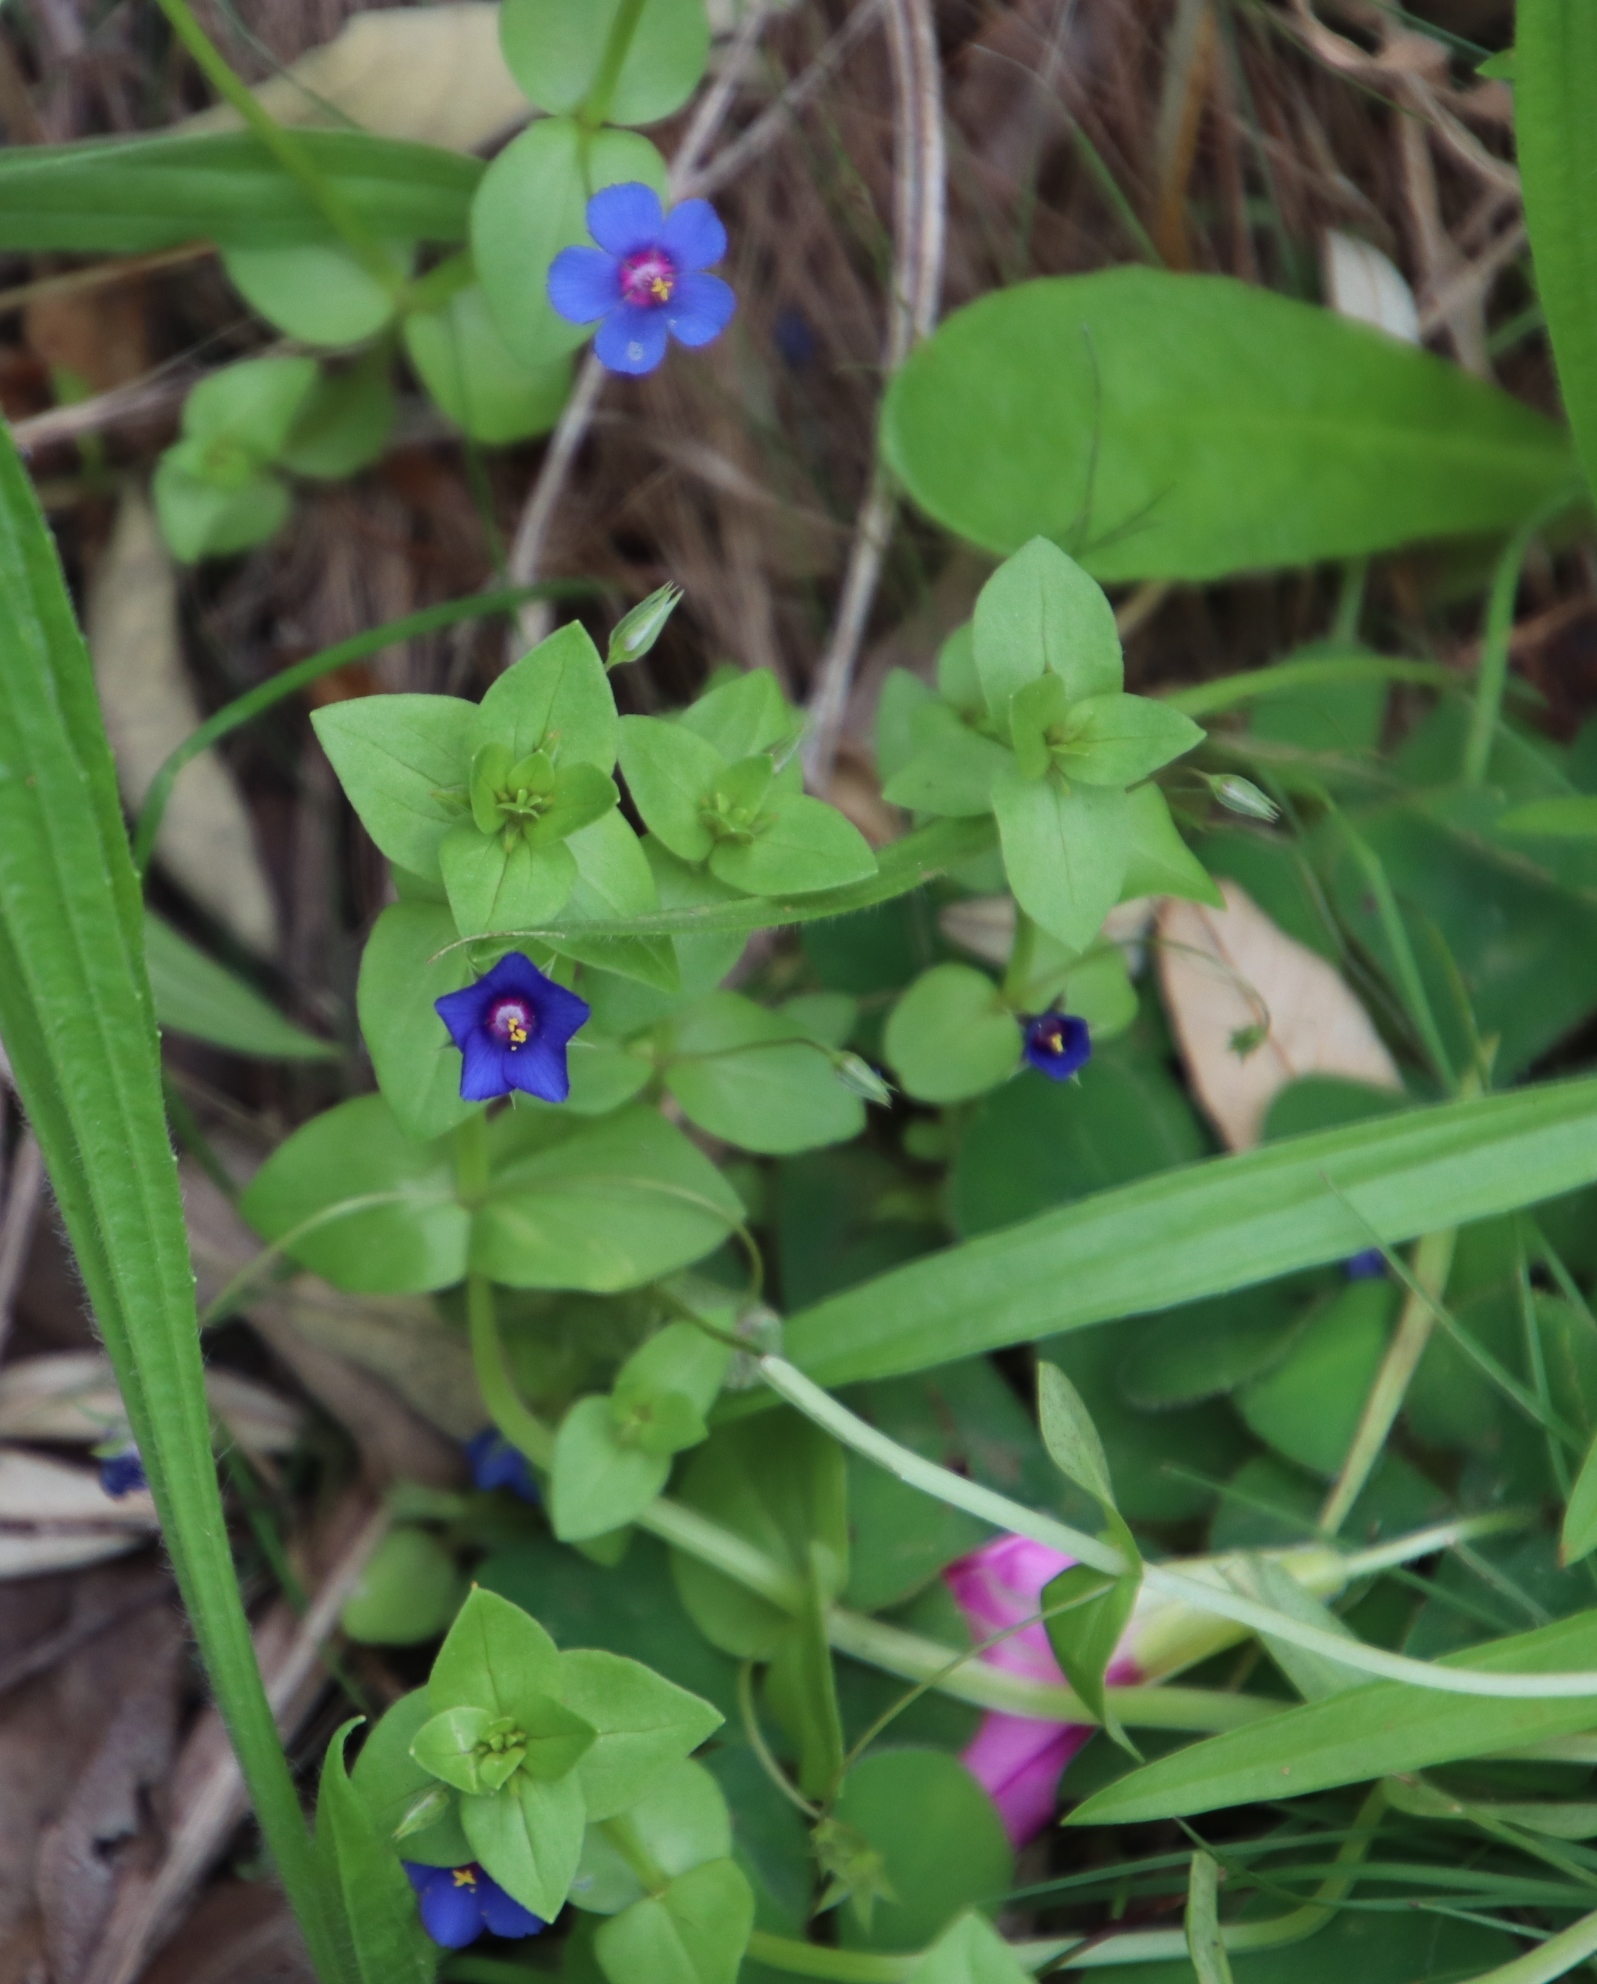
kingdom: Plantae
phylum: Tracheophyta
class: Magnoliopsida
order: Ericales
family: Primulaceae
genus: Lysimachia
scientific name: Lysimachia loeflingii
